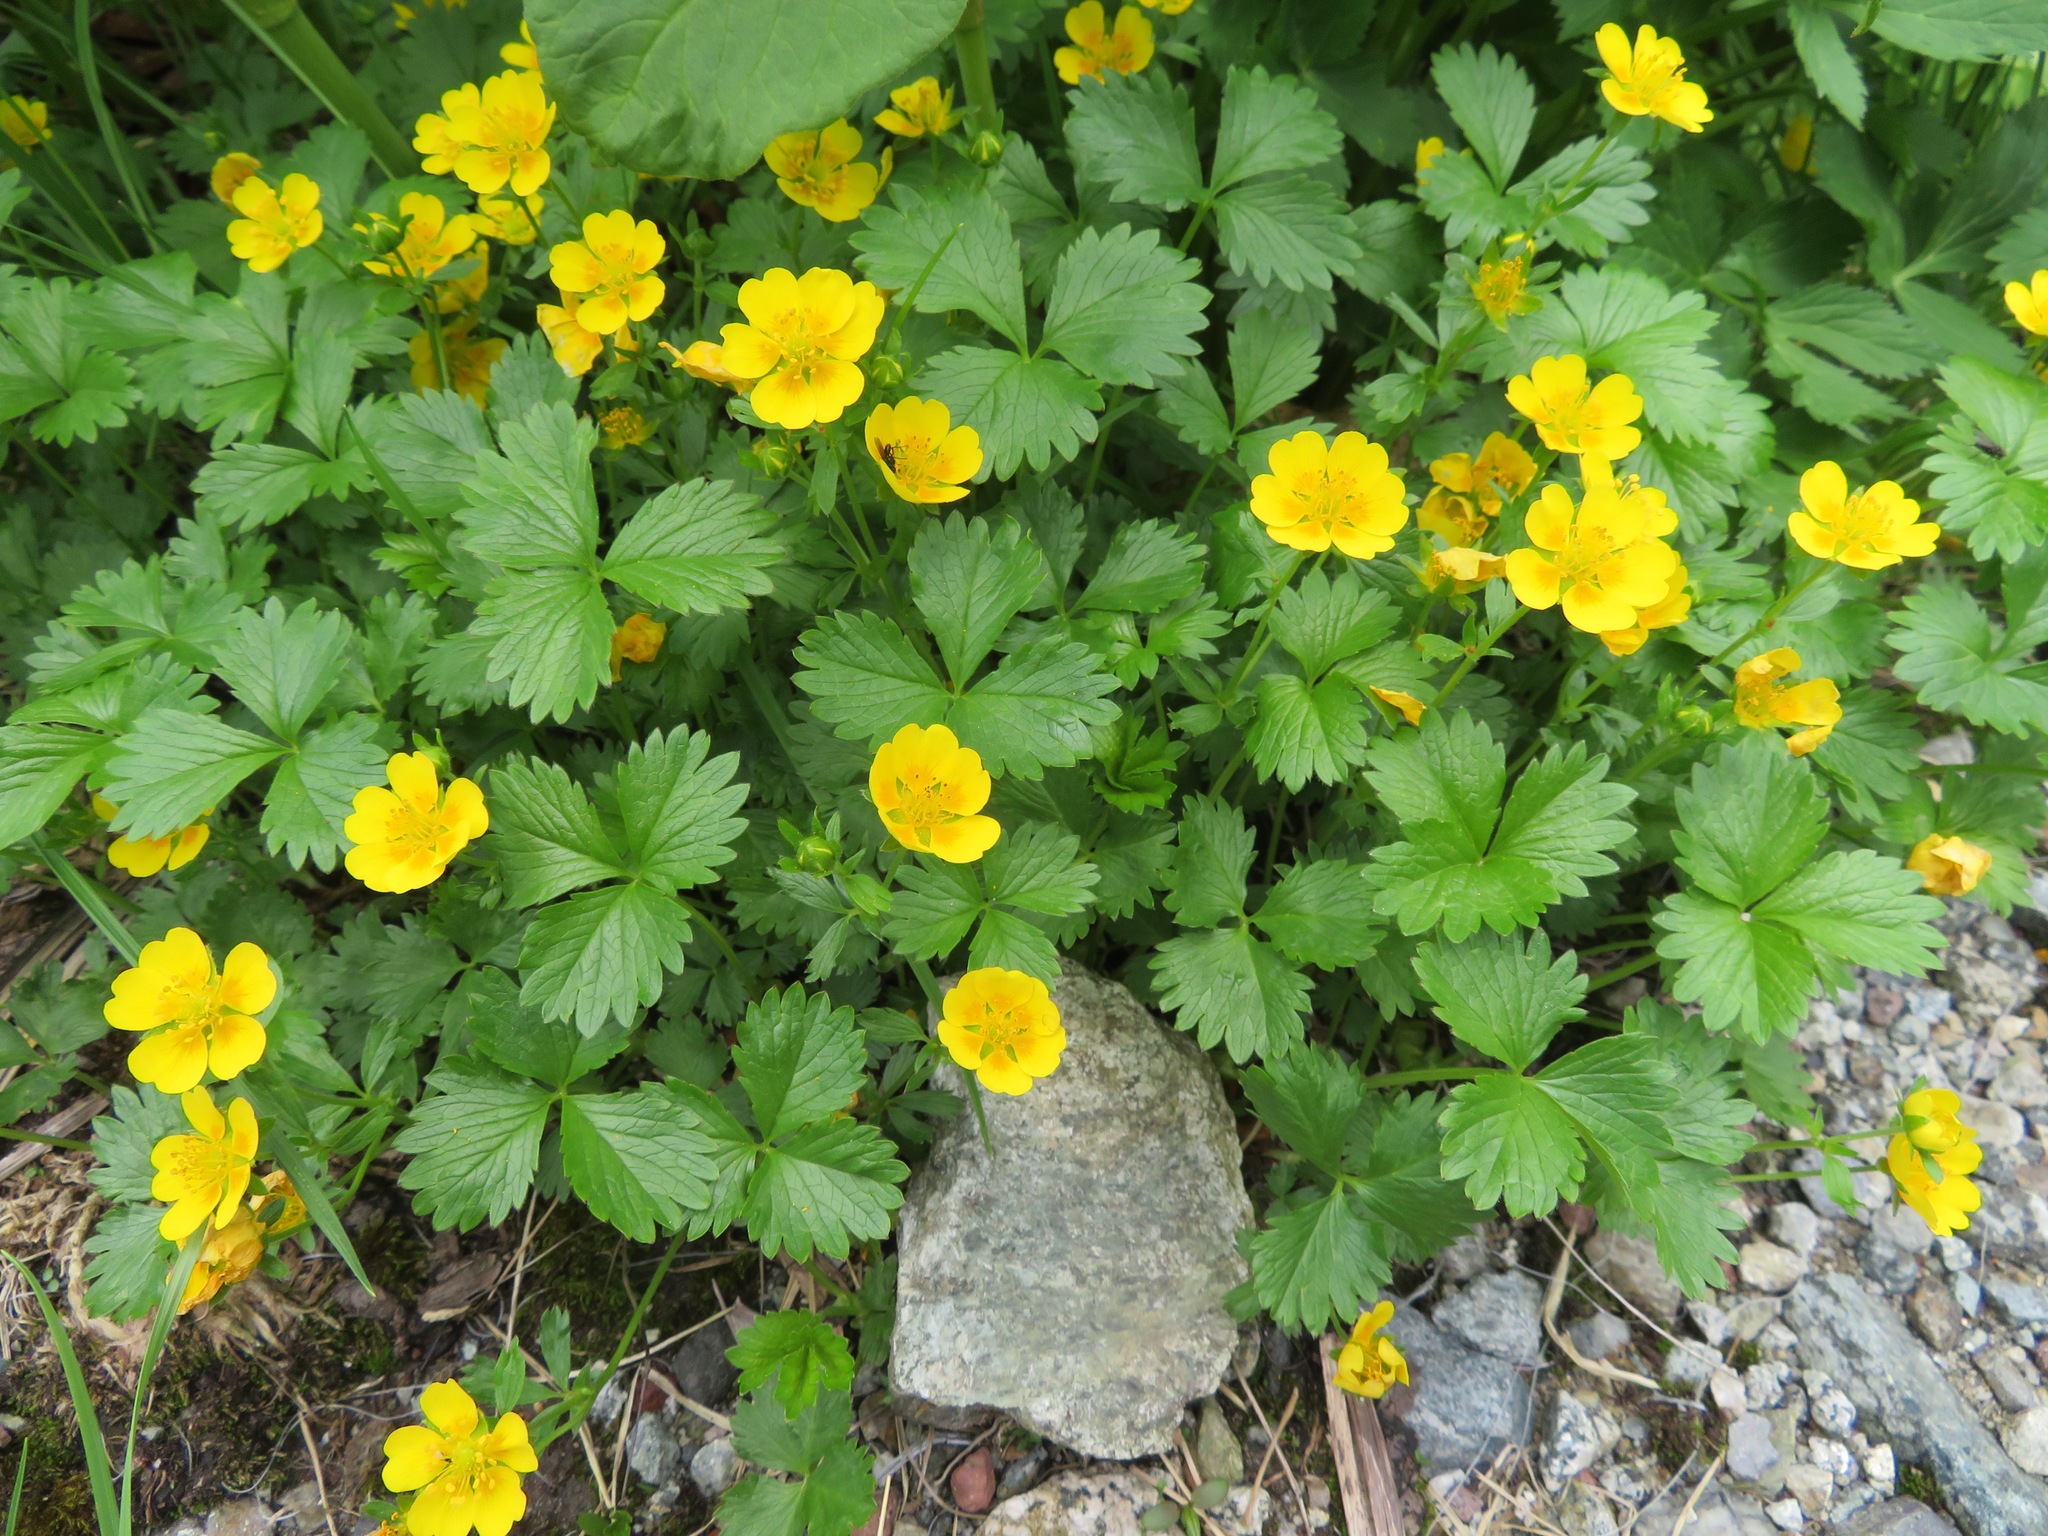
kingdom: Plantae
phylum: Tracheophyta
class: Magnoliopsida
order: Rosales
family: Rosaceae
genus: Potentilla
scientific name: Potentilla matsumurae
